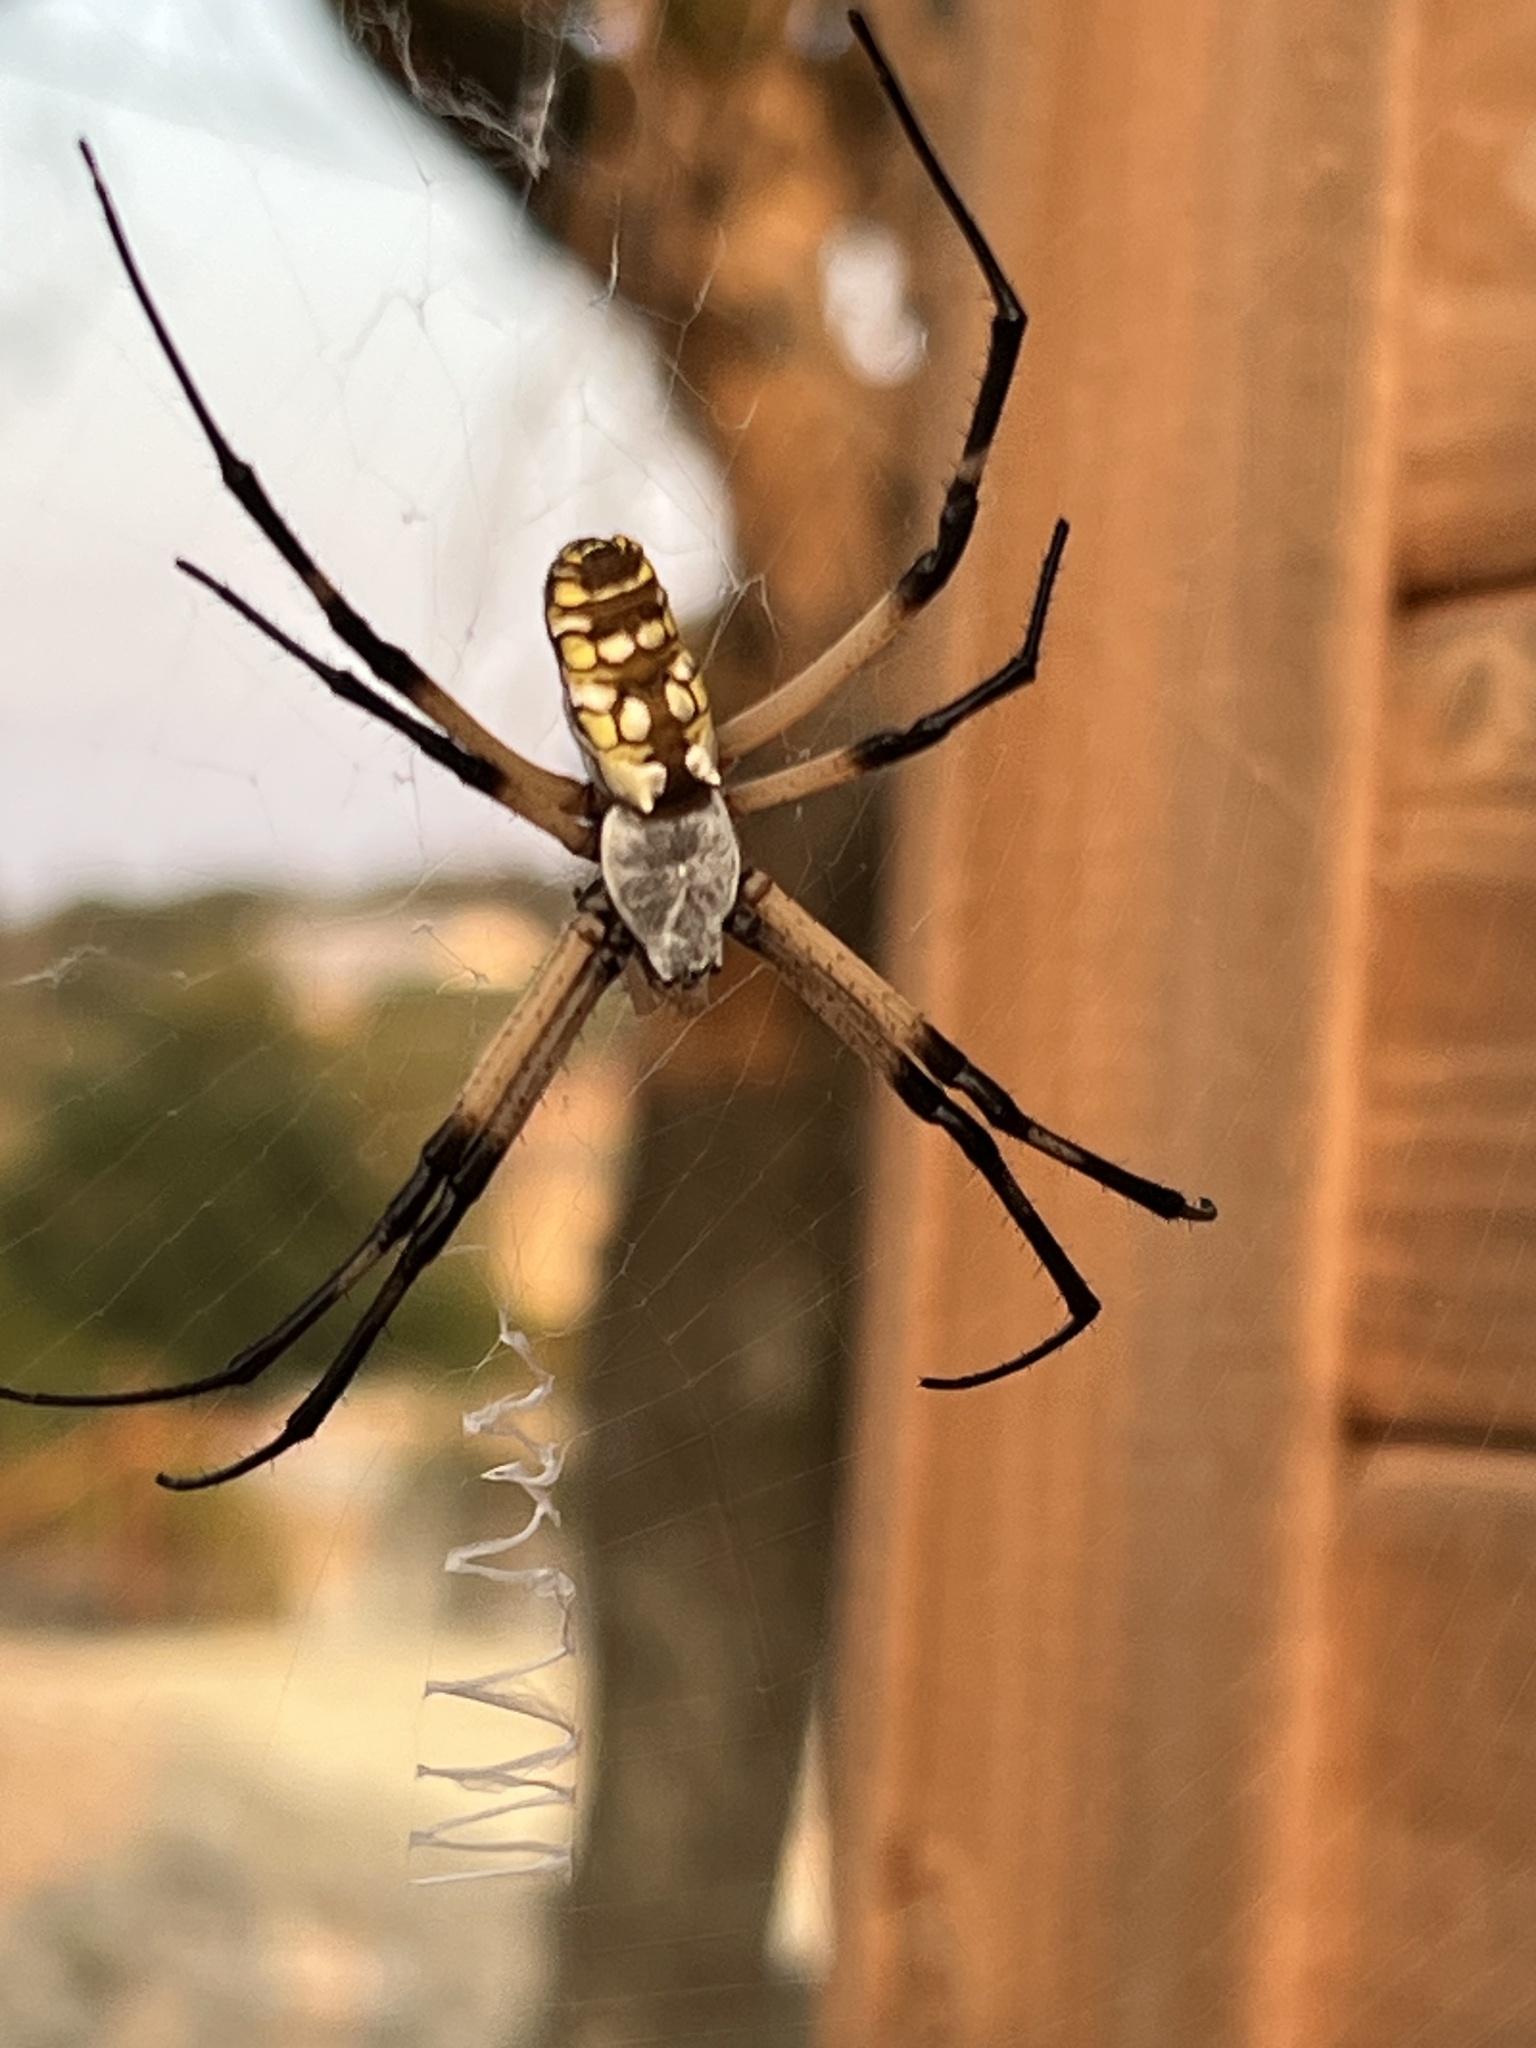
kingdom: Animalia
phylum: Arthropoda
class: Arachnida
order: Araneae
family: Araneidae
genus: Argiope
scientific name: Argiope aurantia
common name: Orb weavers
